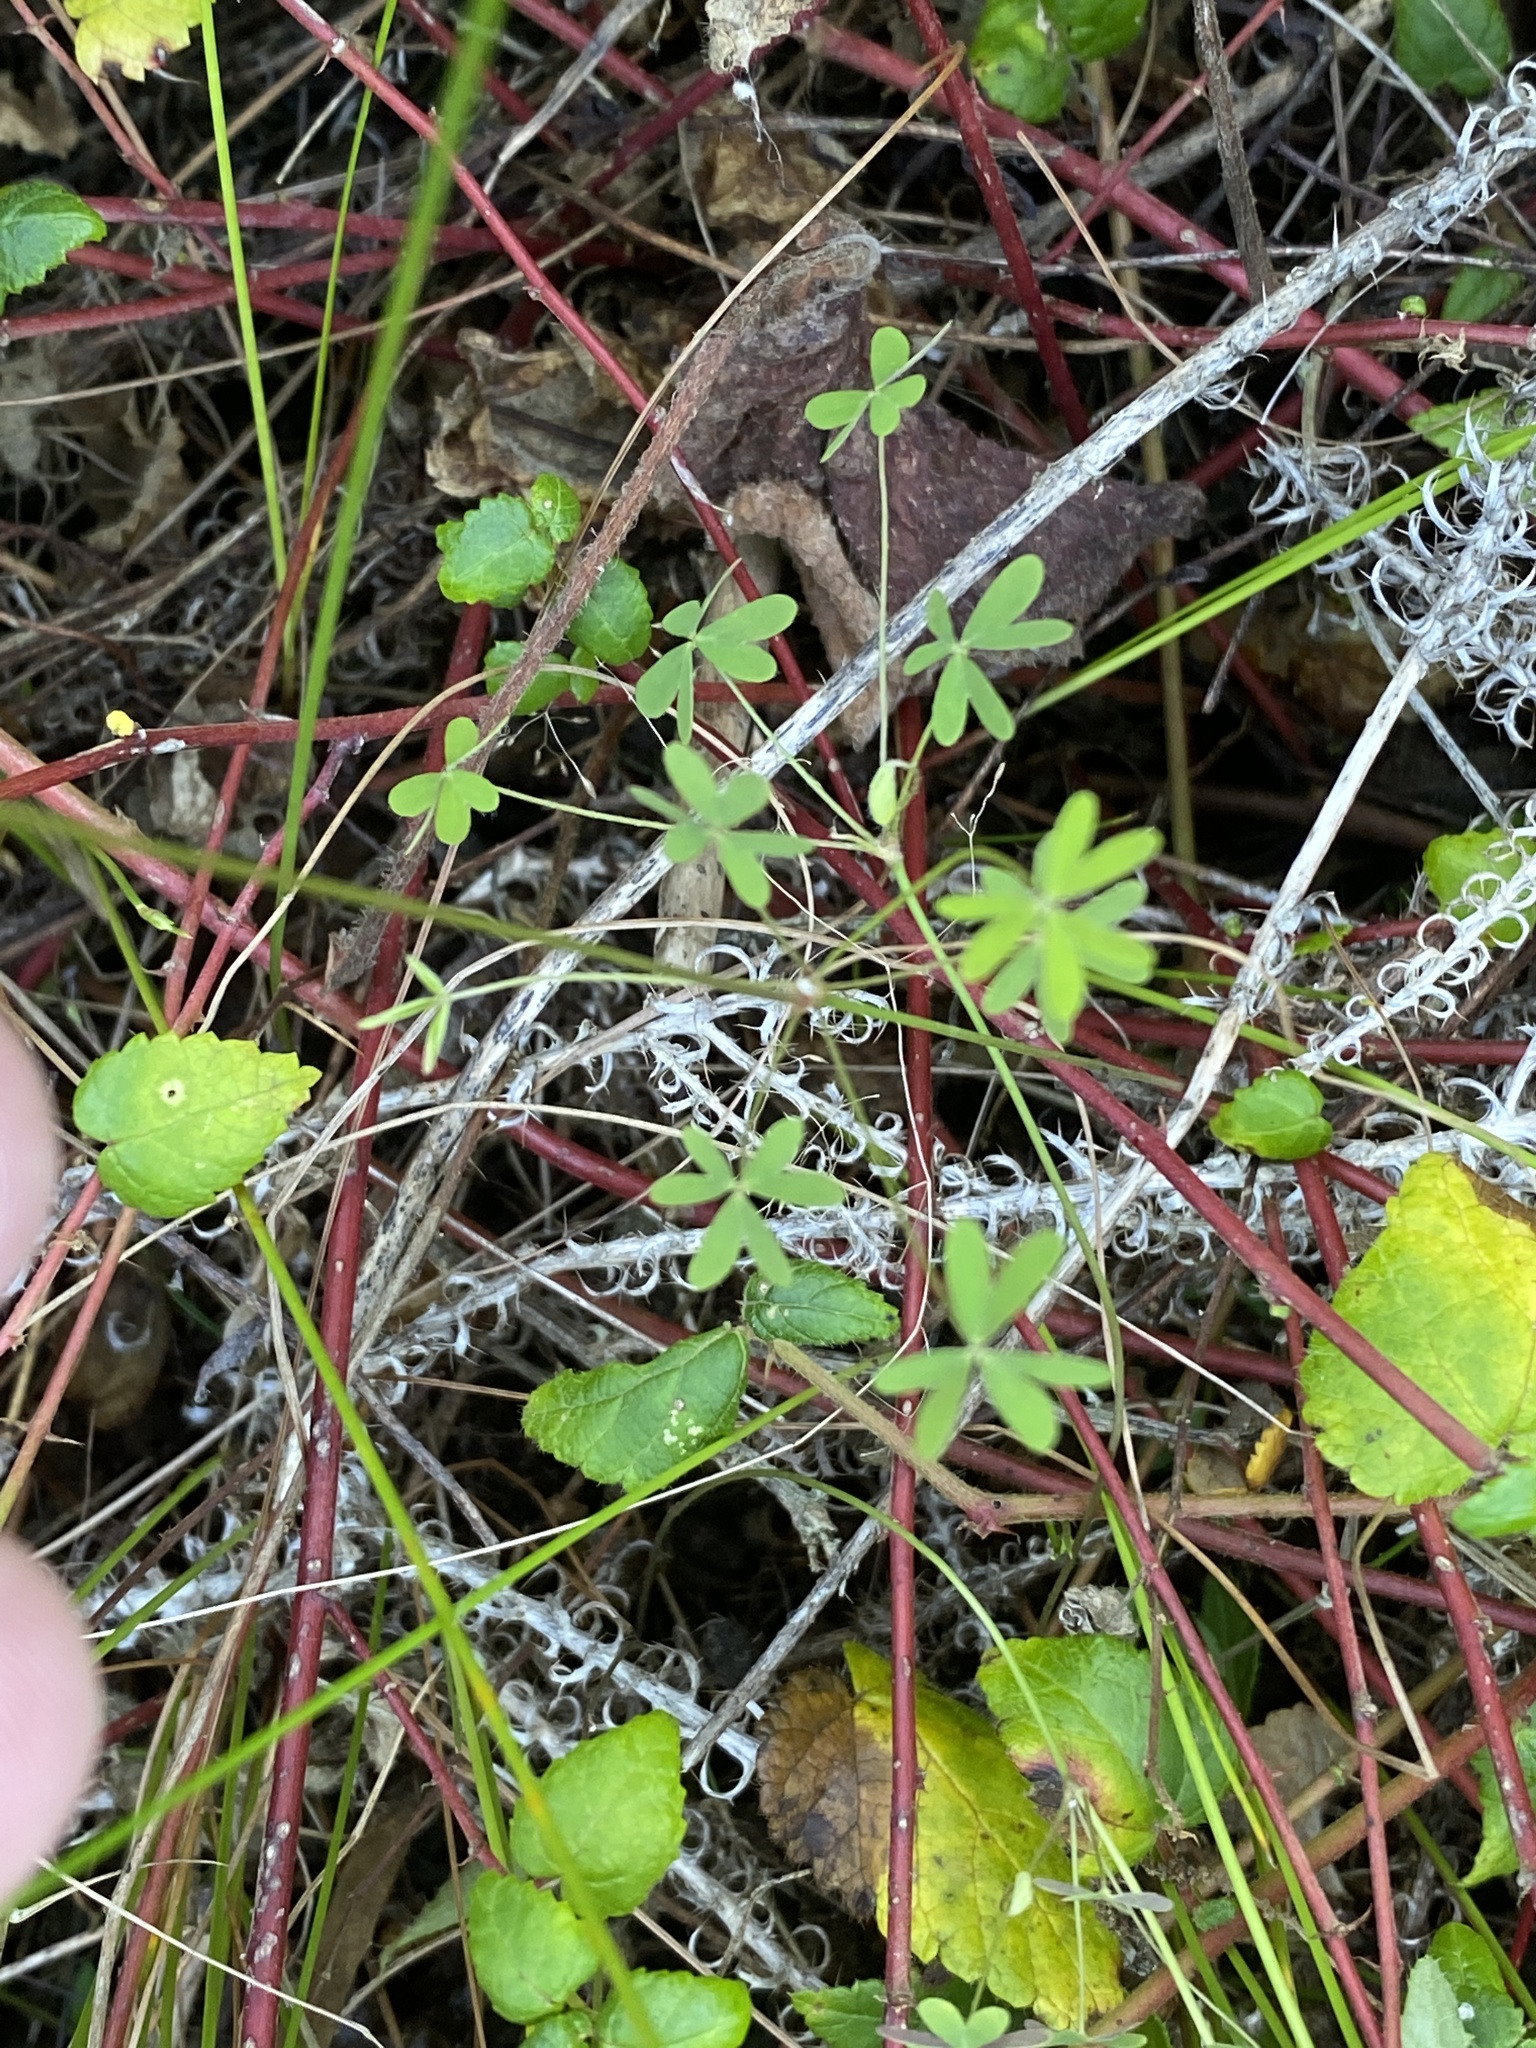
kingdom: Plantae
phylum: Tracheophyta
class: Magnoliopsida
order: Oxalidales
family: Oxalidaceae
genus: Oxalis
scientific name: Oxalis stellata
